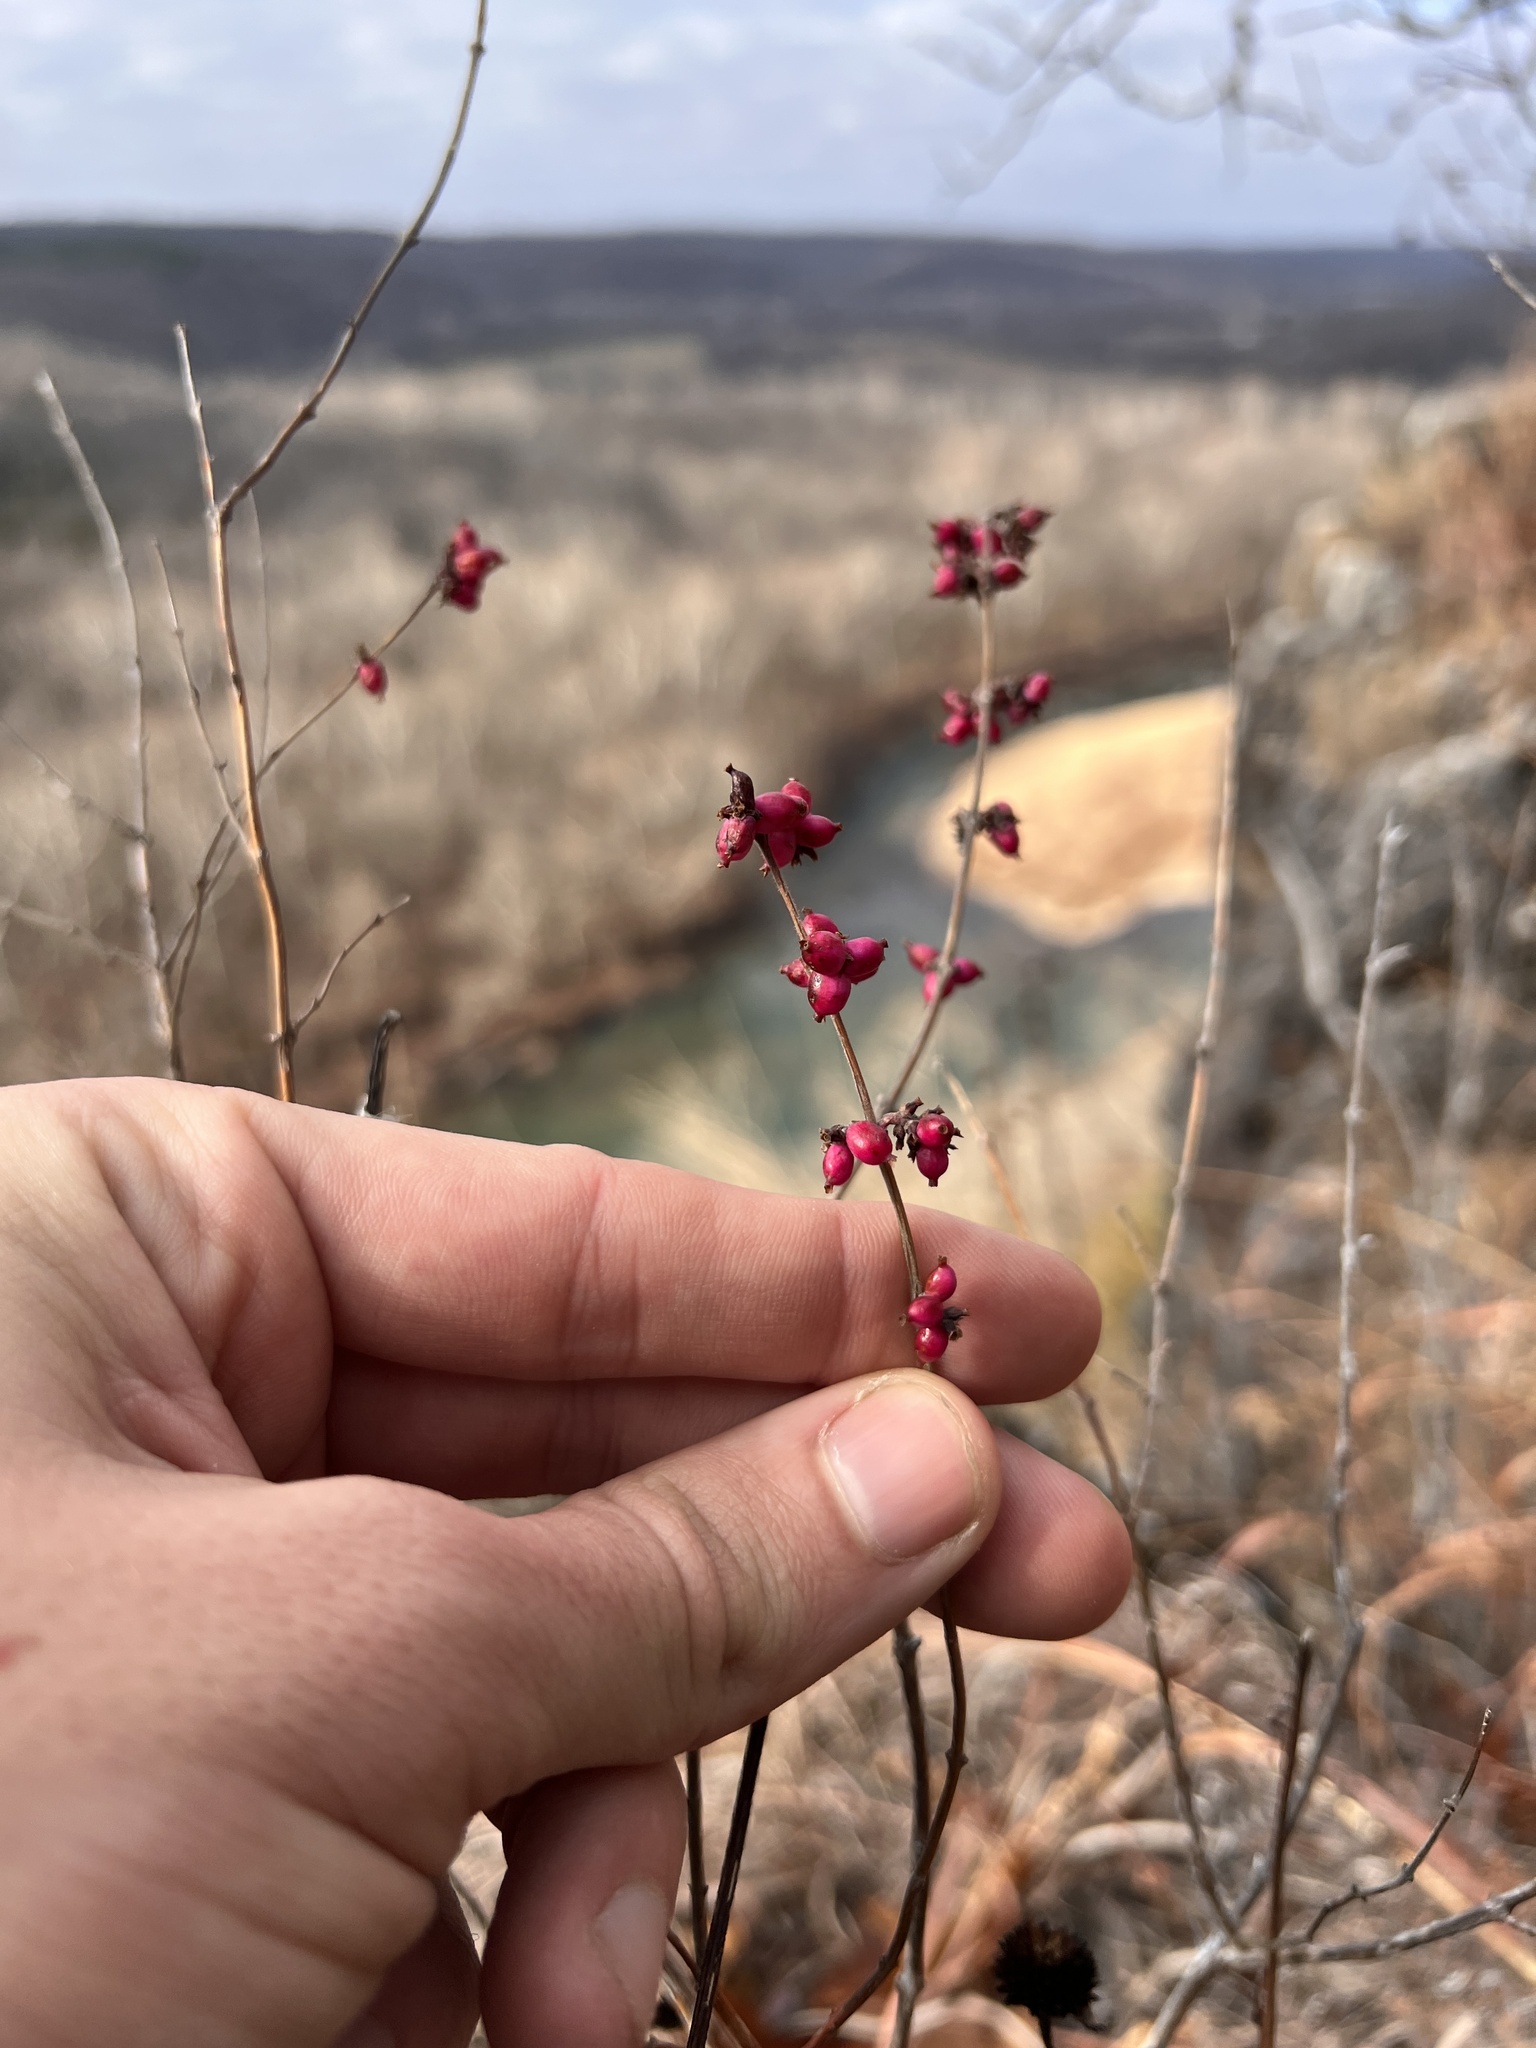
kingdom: Plantae
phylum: Tracheophyta
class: Magnoliopsida
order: Dipsacales
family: Caprifoliaceae
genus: Symphoricarpos
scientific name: Symphoricarpos orbiculatus
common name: Coralberry
